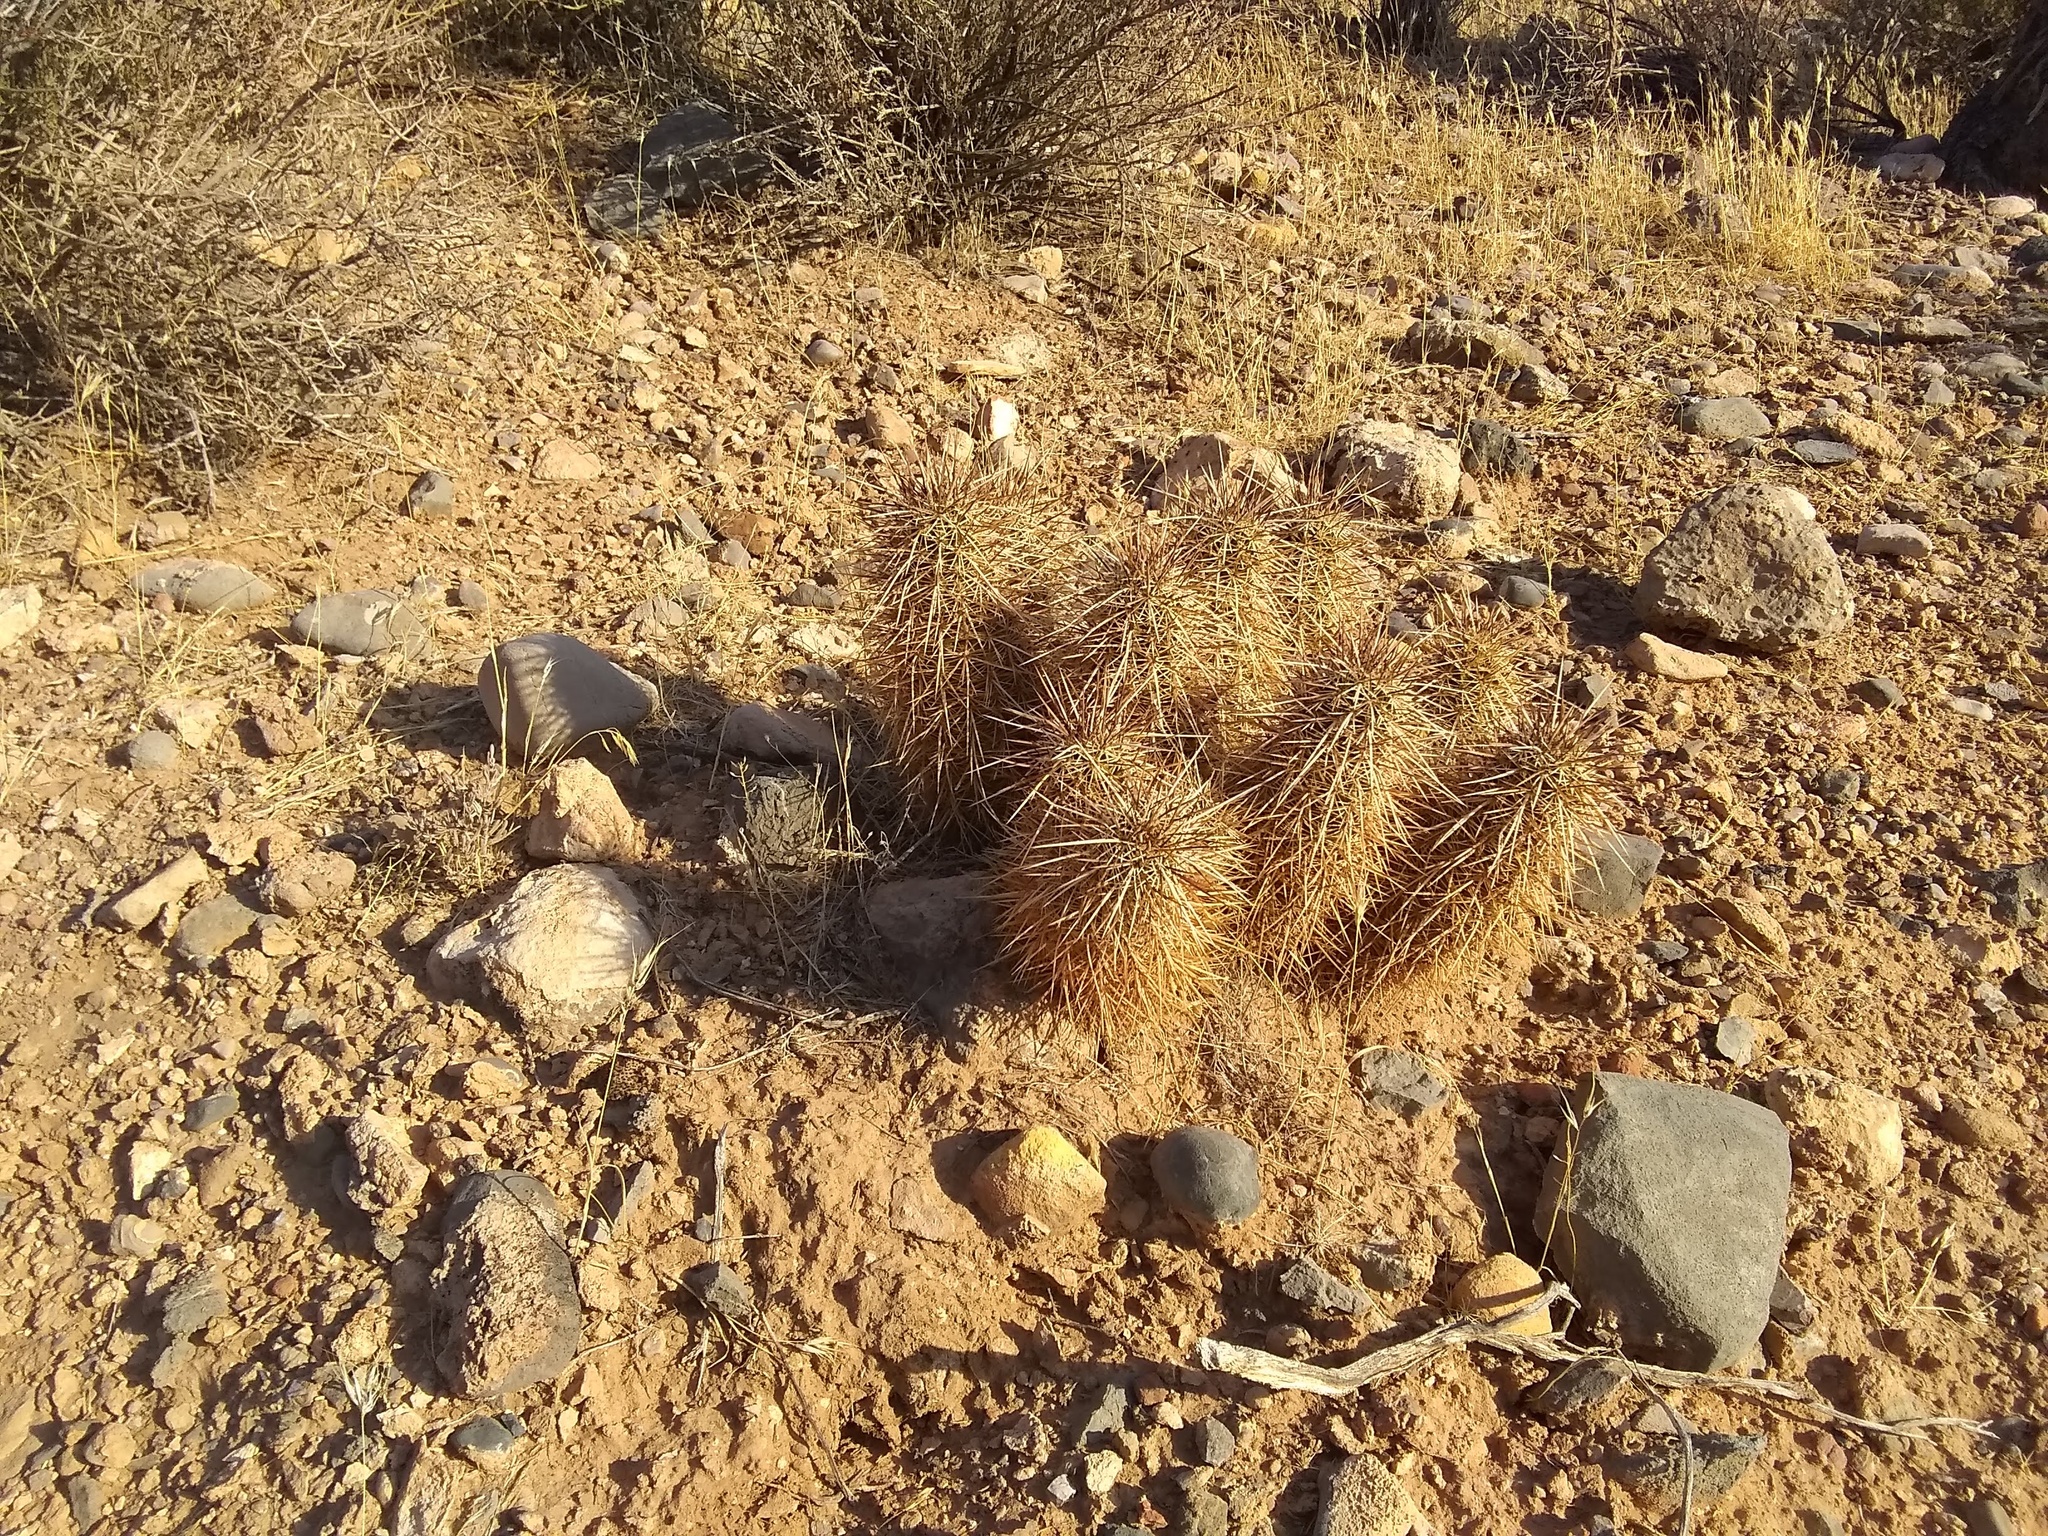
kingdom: Plantae
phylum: Tracheophyta
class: Magnoliopsida
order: Caryophyllales
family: Cactaceae
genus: Echinocereus
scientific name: Echinocereus engelmannii
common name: Engelmann's hedgehog cactus
